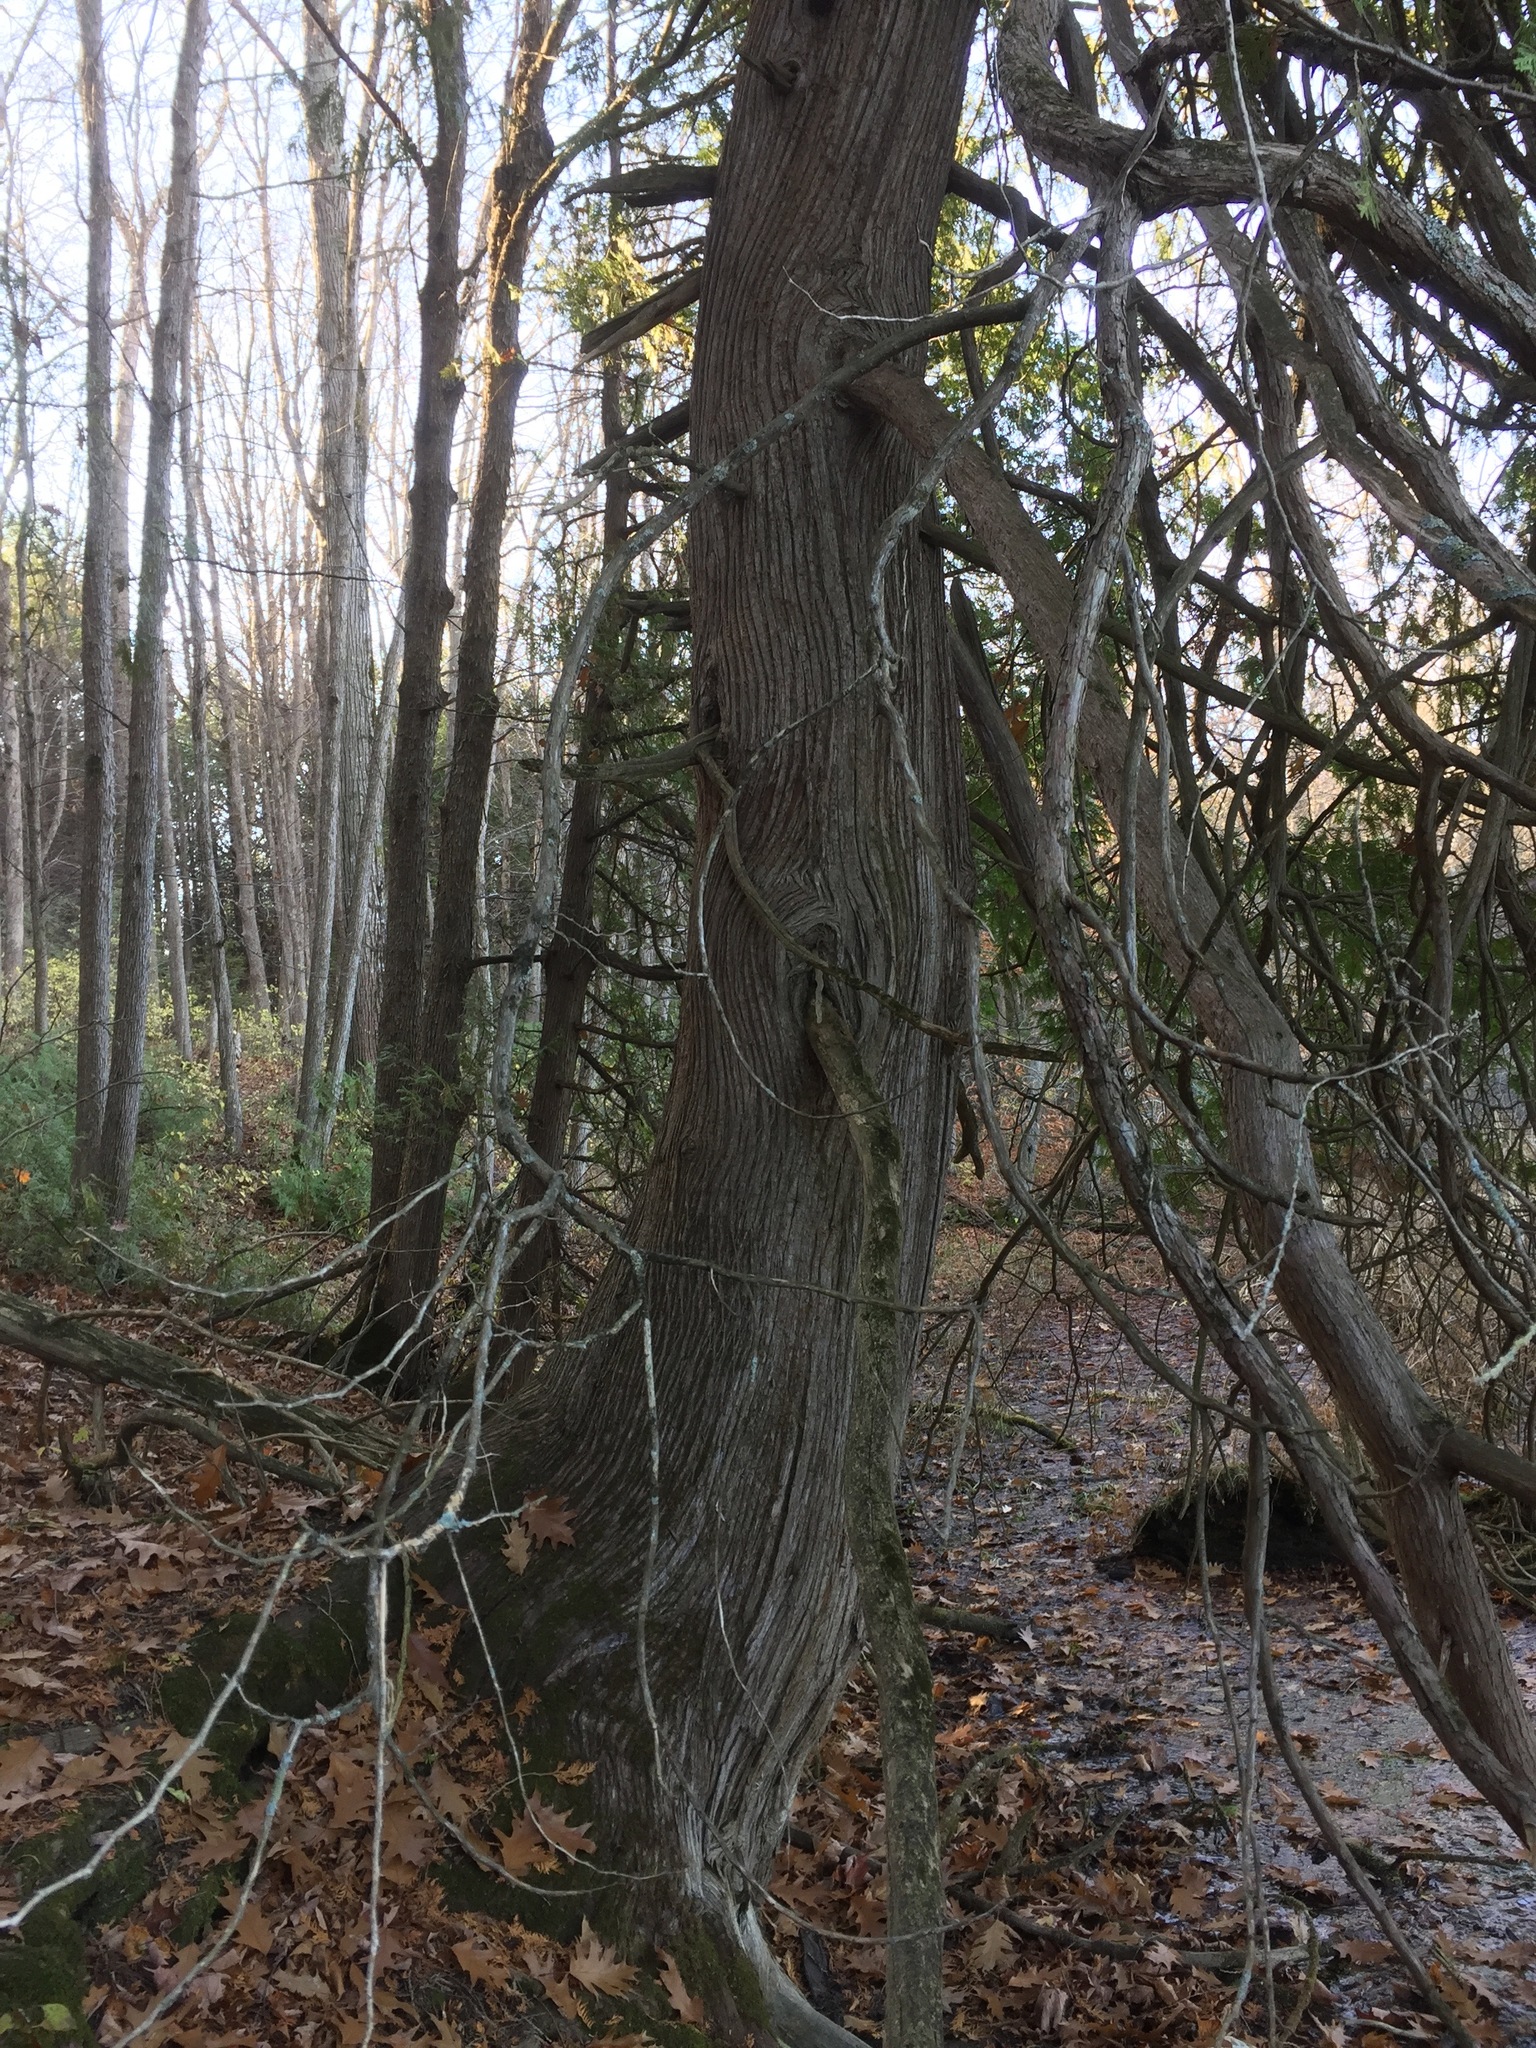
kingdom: Plantae
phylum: Tracheophyta
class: Pinopsida
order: Pinales
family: Cupressaceae
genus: Thuja
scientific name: Thuja occidentalis
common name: Northern white-cedar
